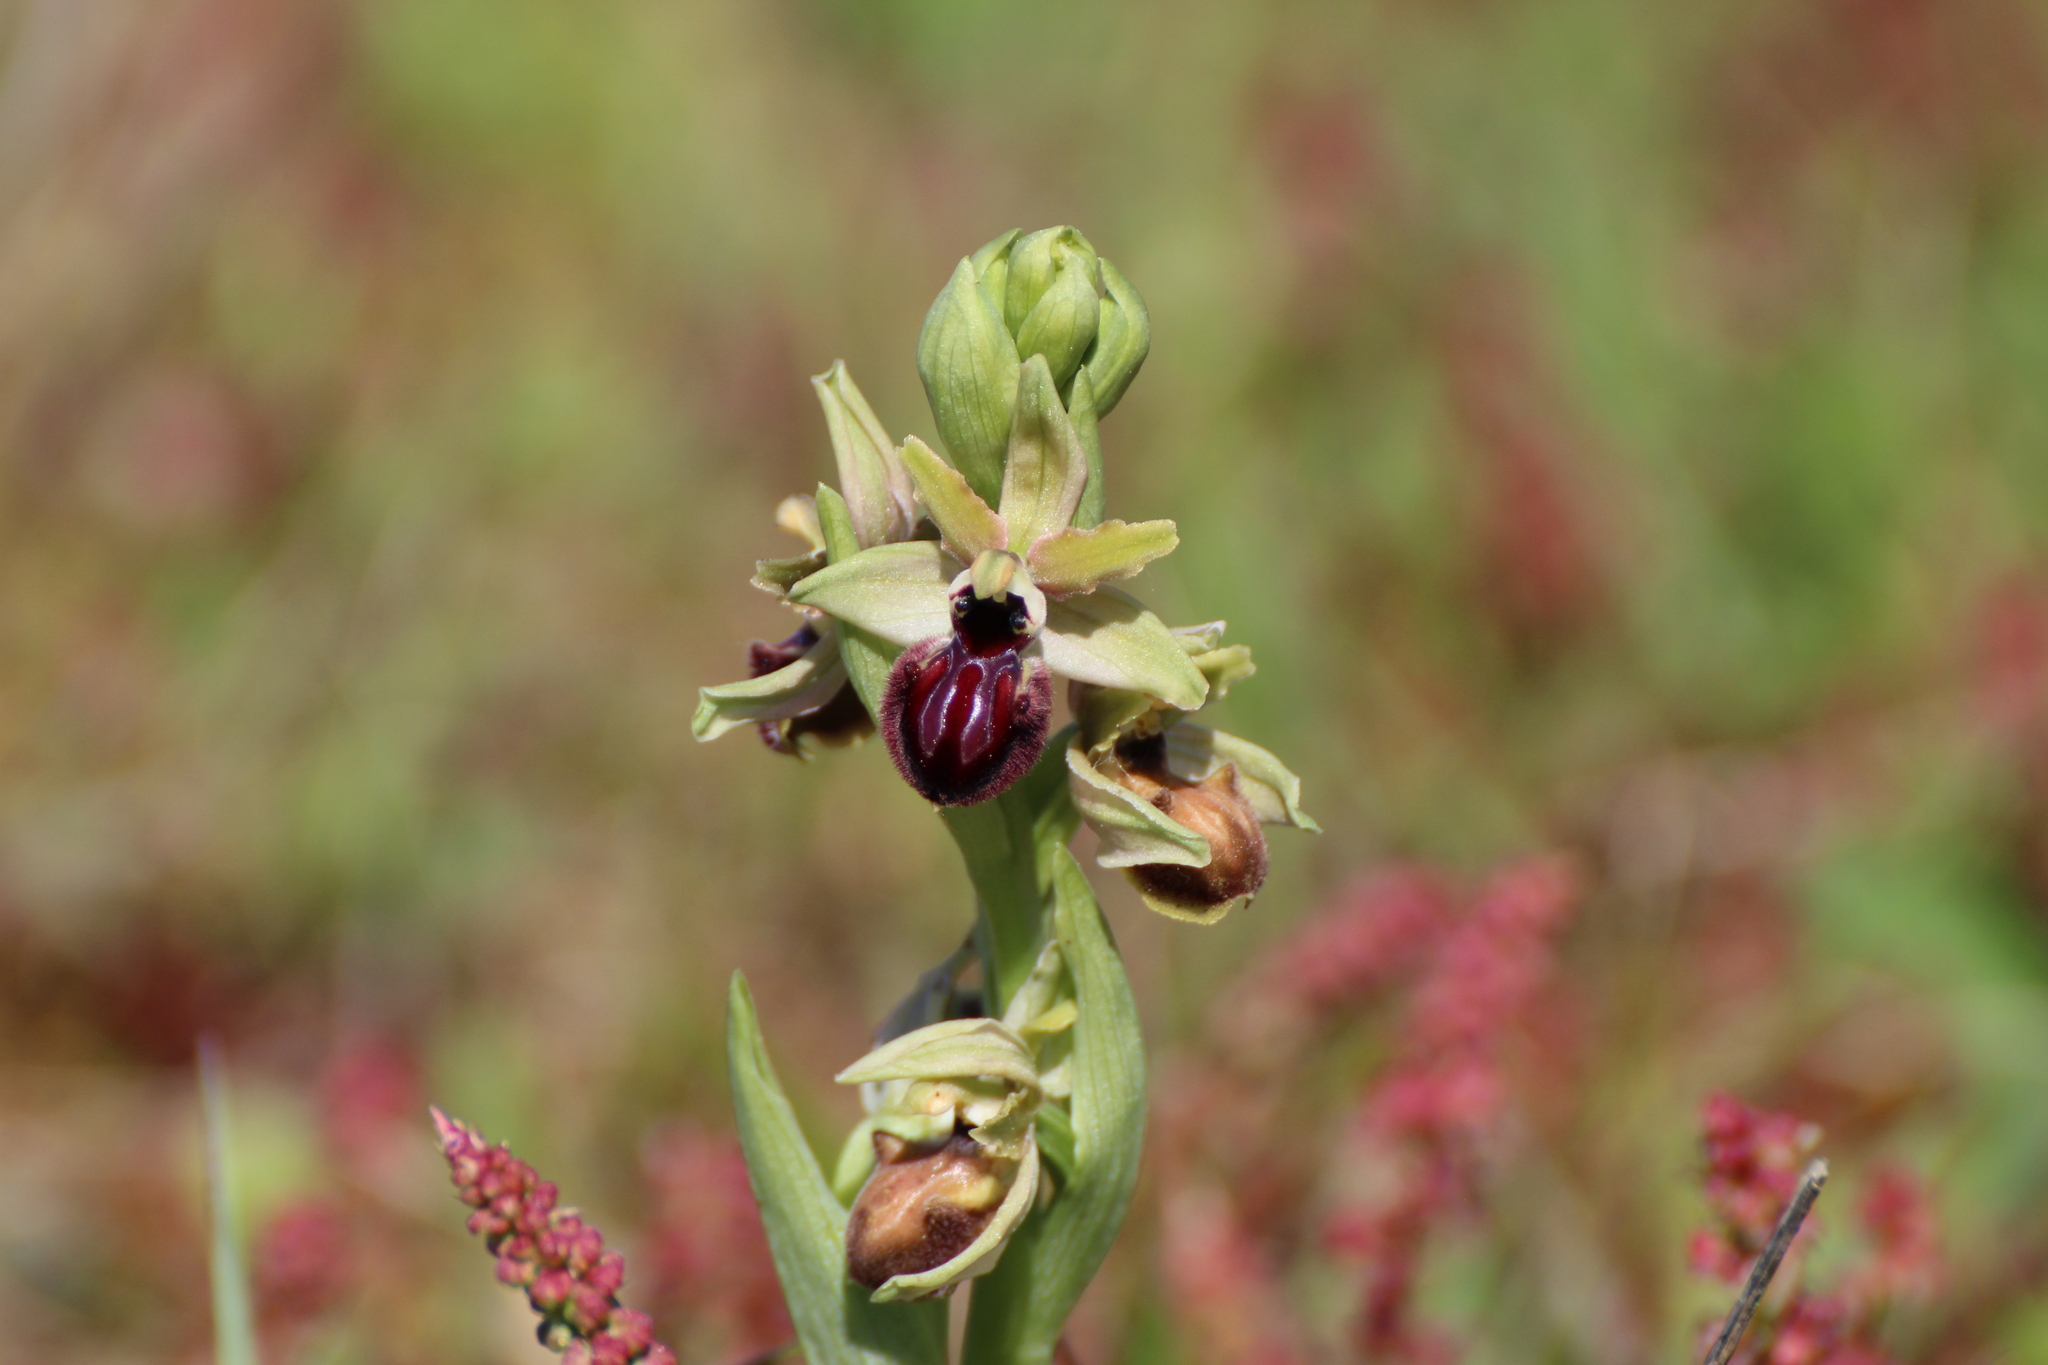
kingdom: Plantae
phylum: Tracheophyta
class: Liliopsida
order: Asparagales
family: Orchidaceae
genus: Ophrys
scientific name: Ophrys sphegodes
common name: Early spider-orchid
